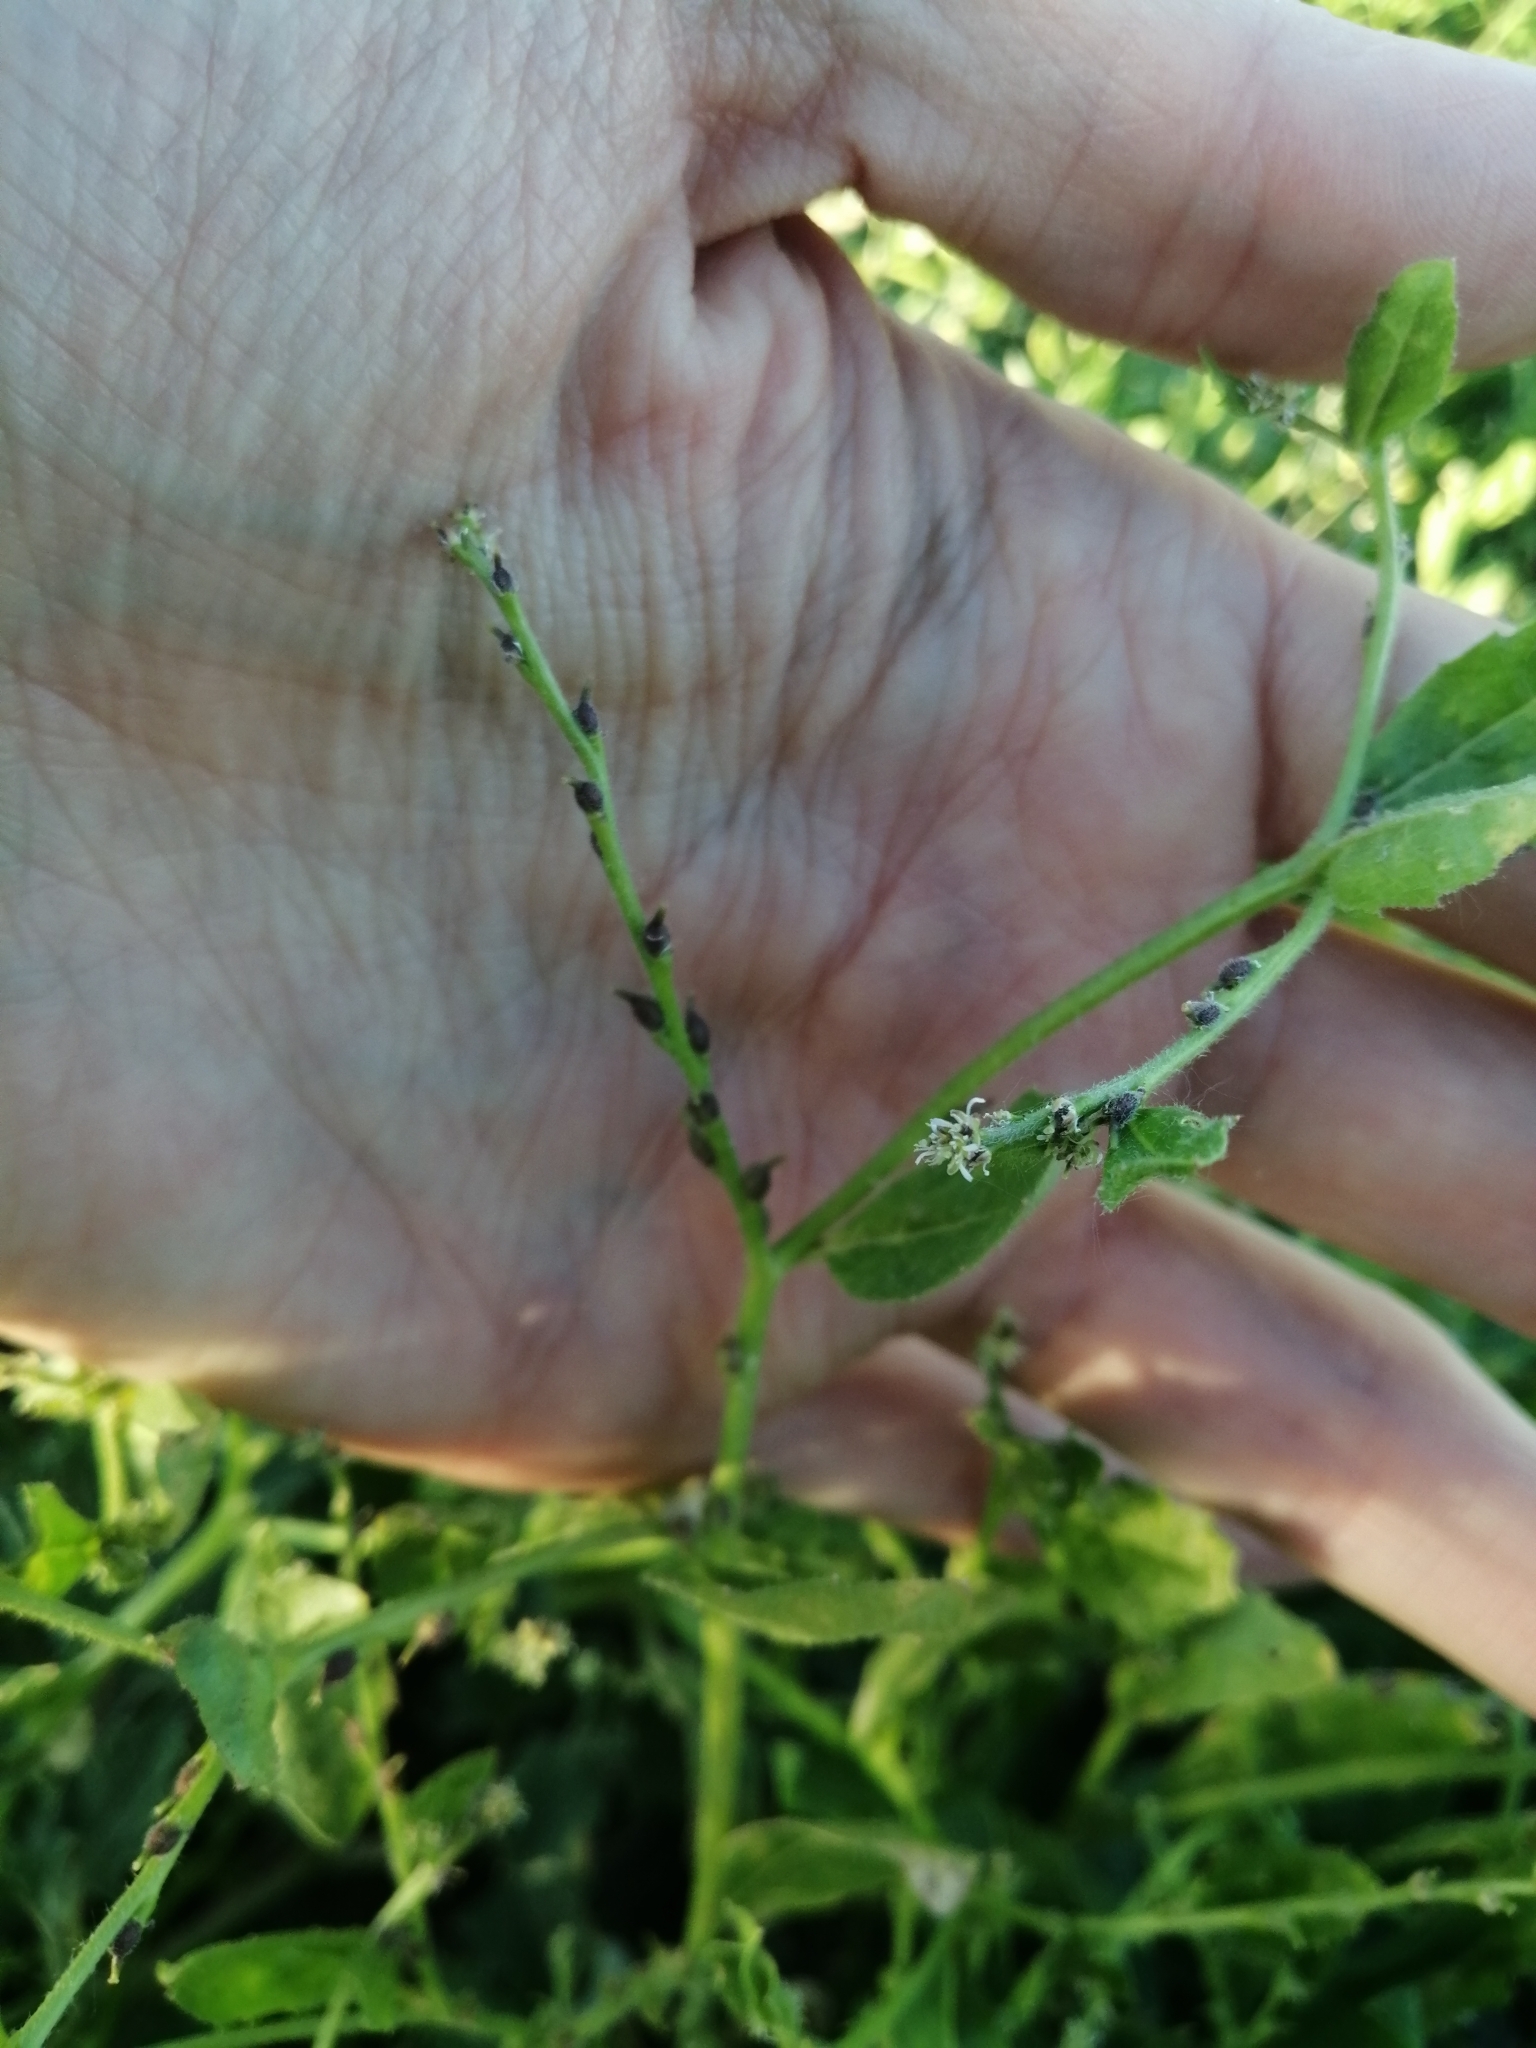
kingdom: Plantae
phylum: Tracheophyta
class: Magnoliopsida
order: Brassicales
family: Brassicaceae
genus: Euclidium
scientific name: Euclidium syriacum
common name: Syrian mustard
